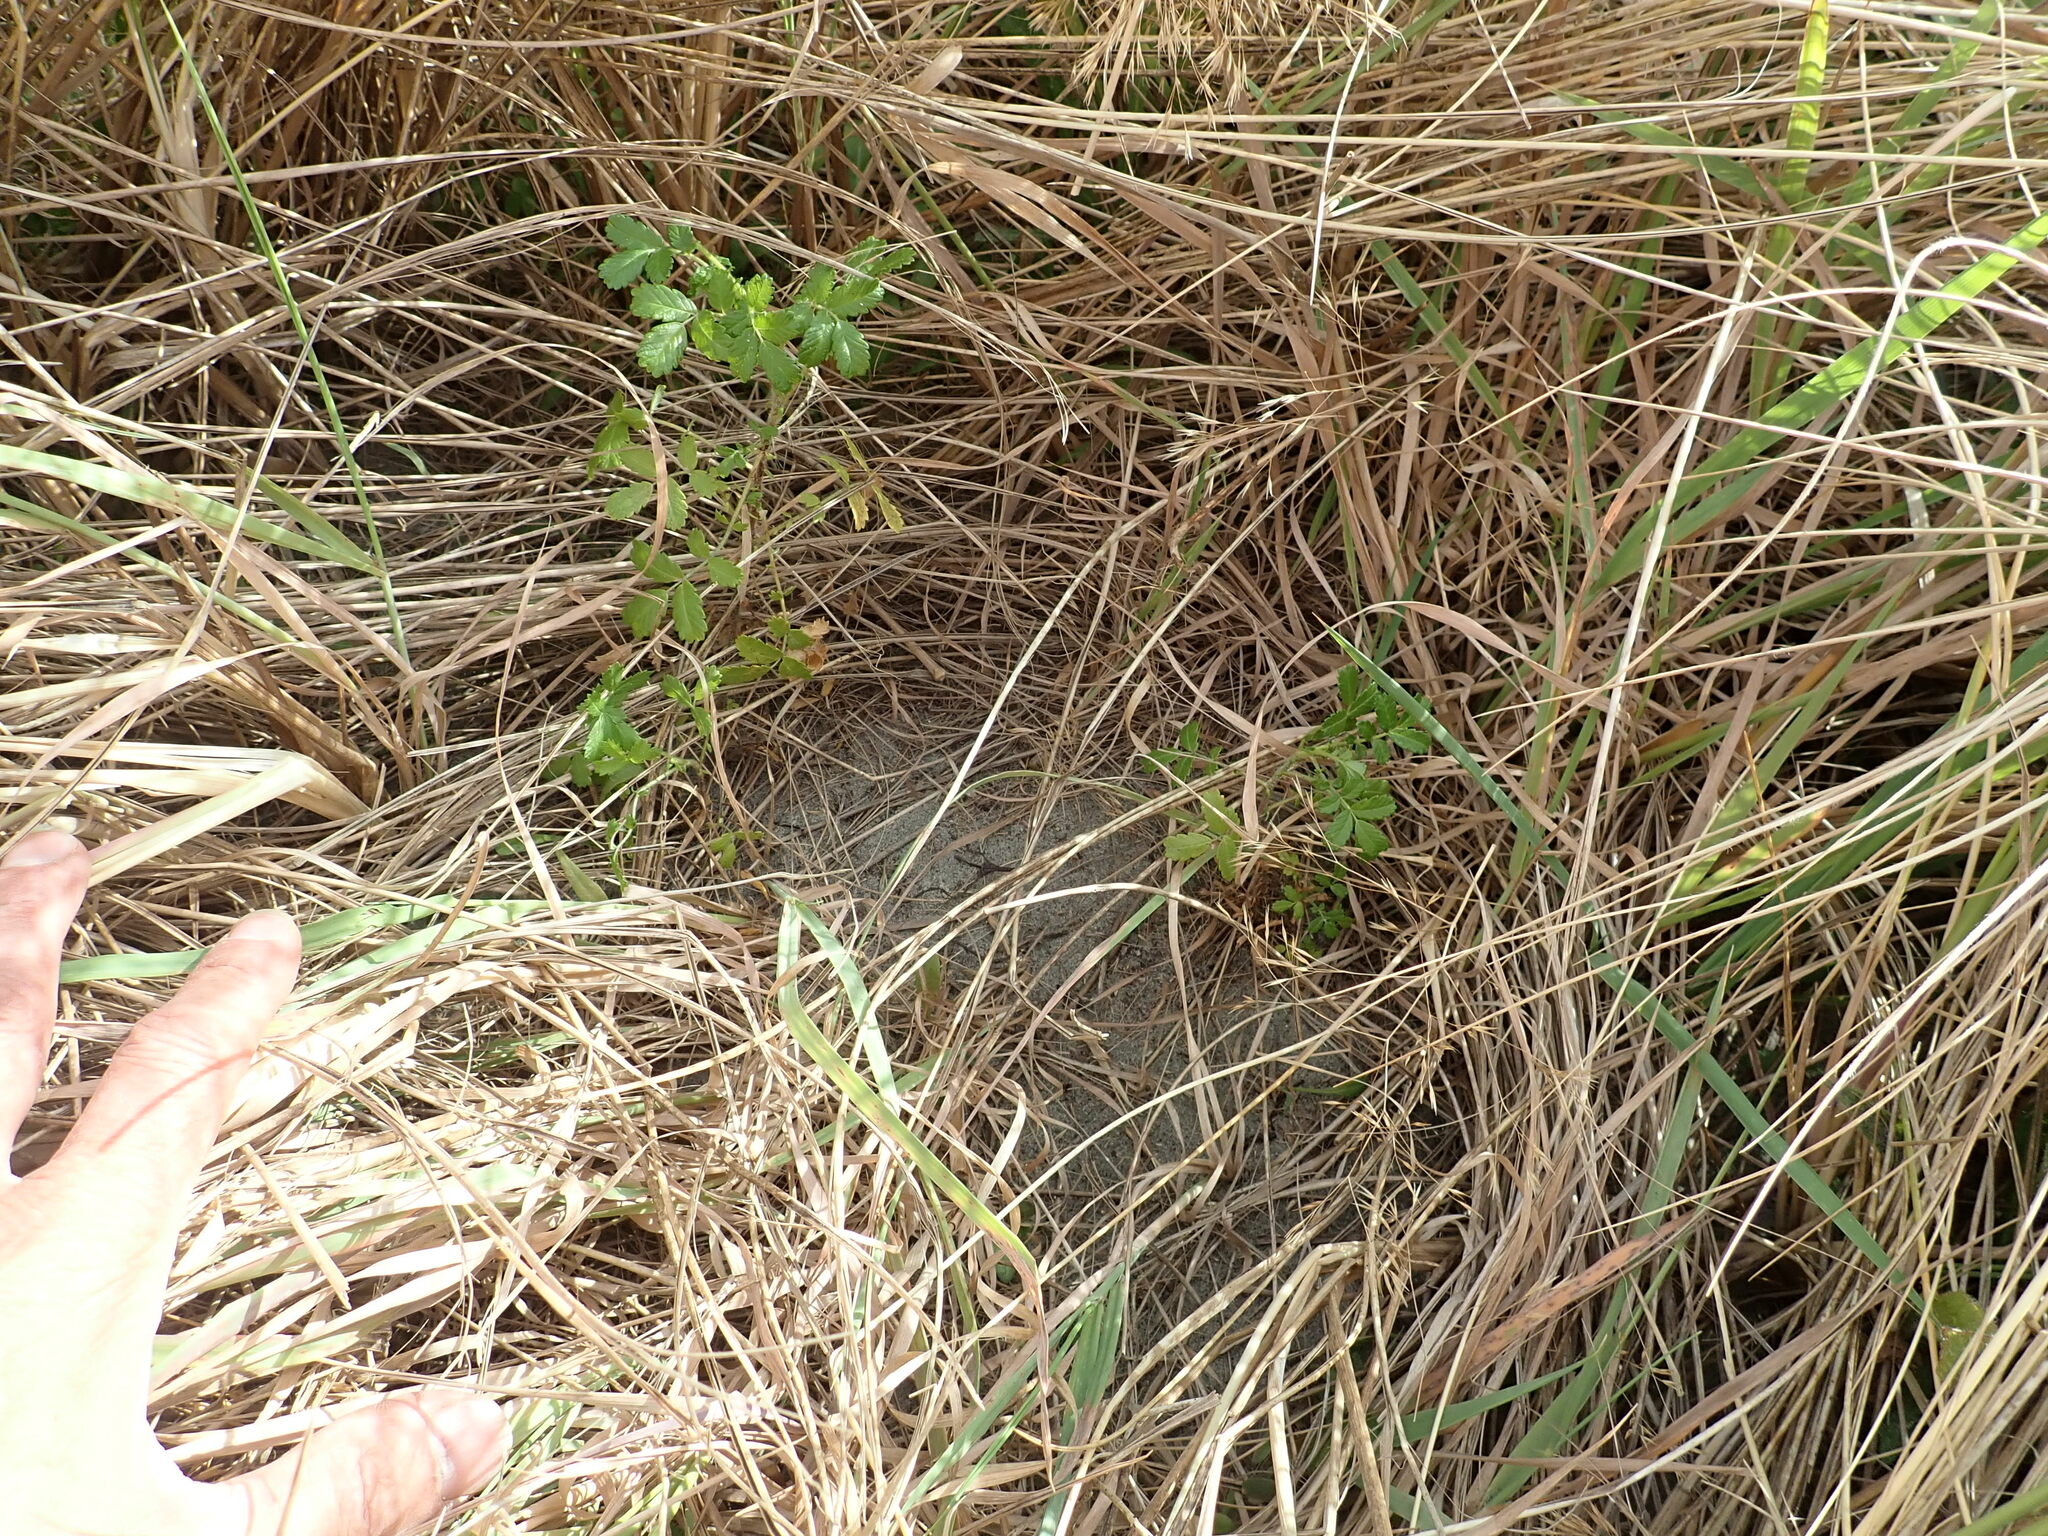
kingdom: Plantae
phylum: Tracheophyta
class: Magnoliopsida
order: Rosales
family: Rosaceae
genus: Acaena
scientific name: Acaena novae-zelandiae
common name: Pirri-pirri-bur
